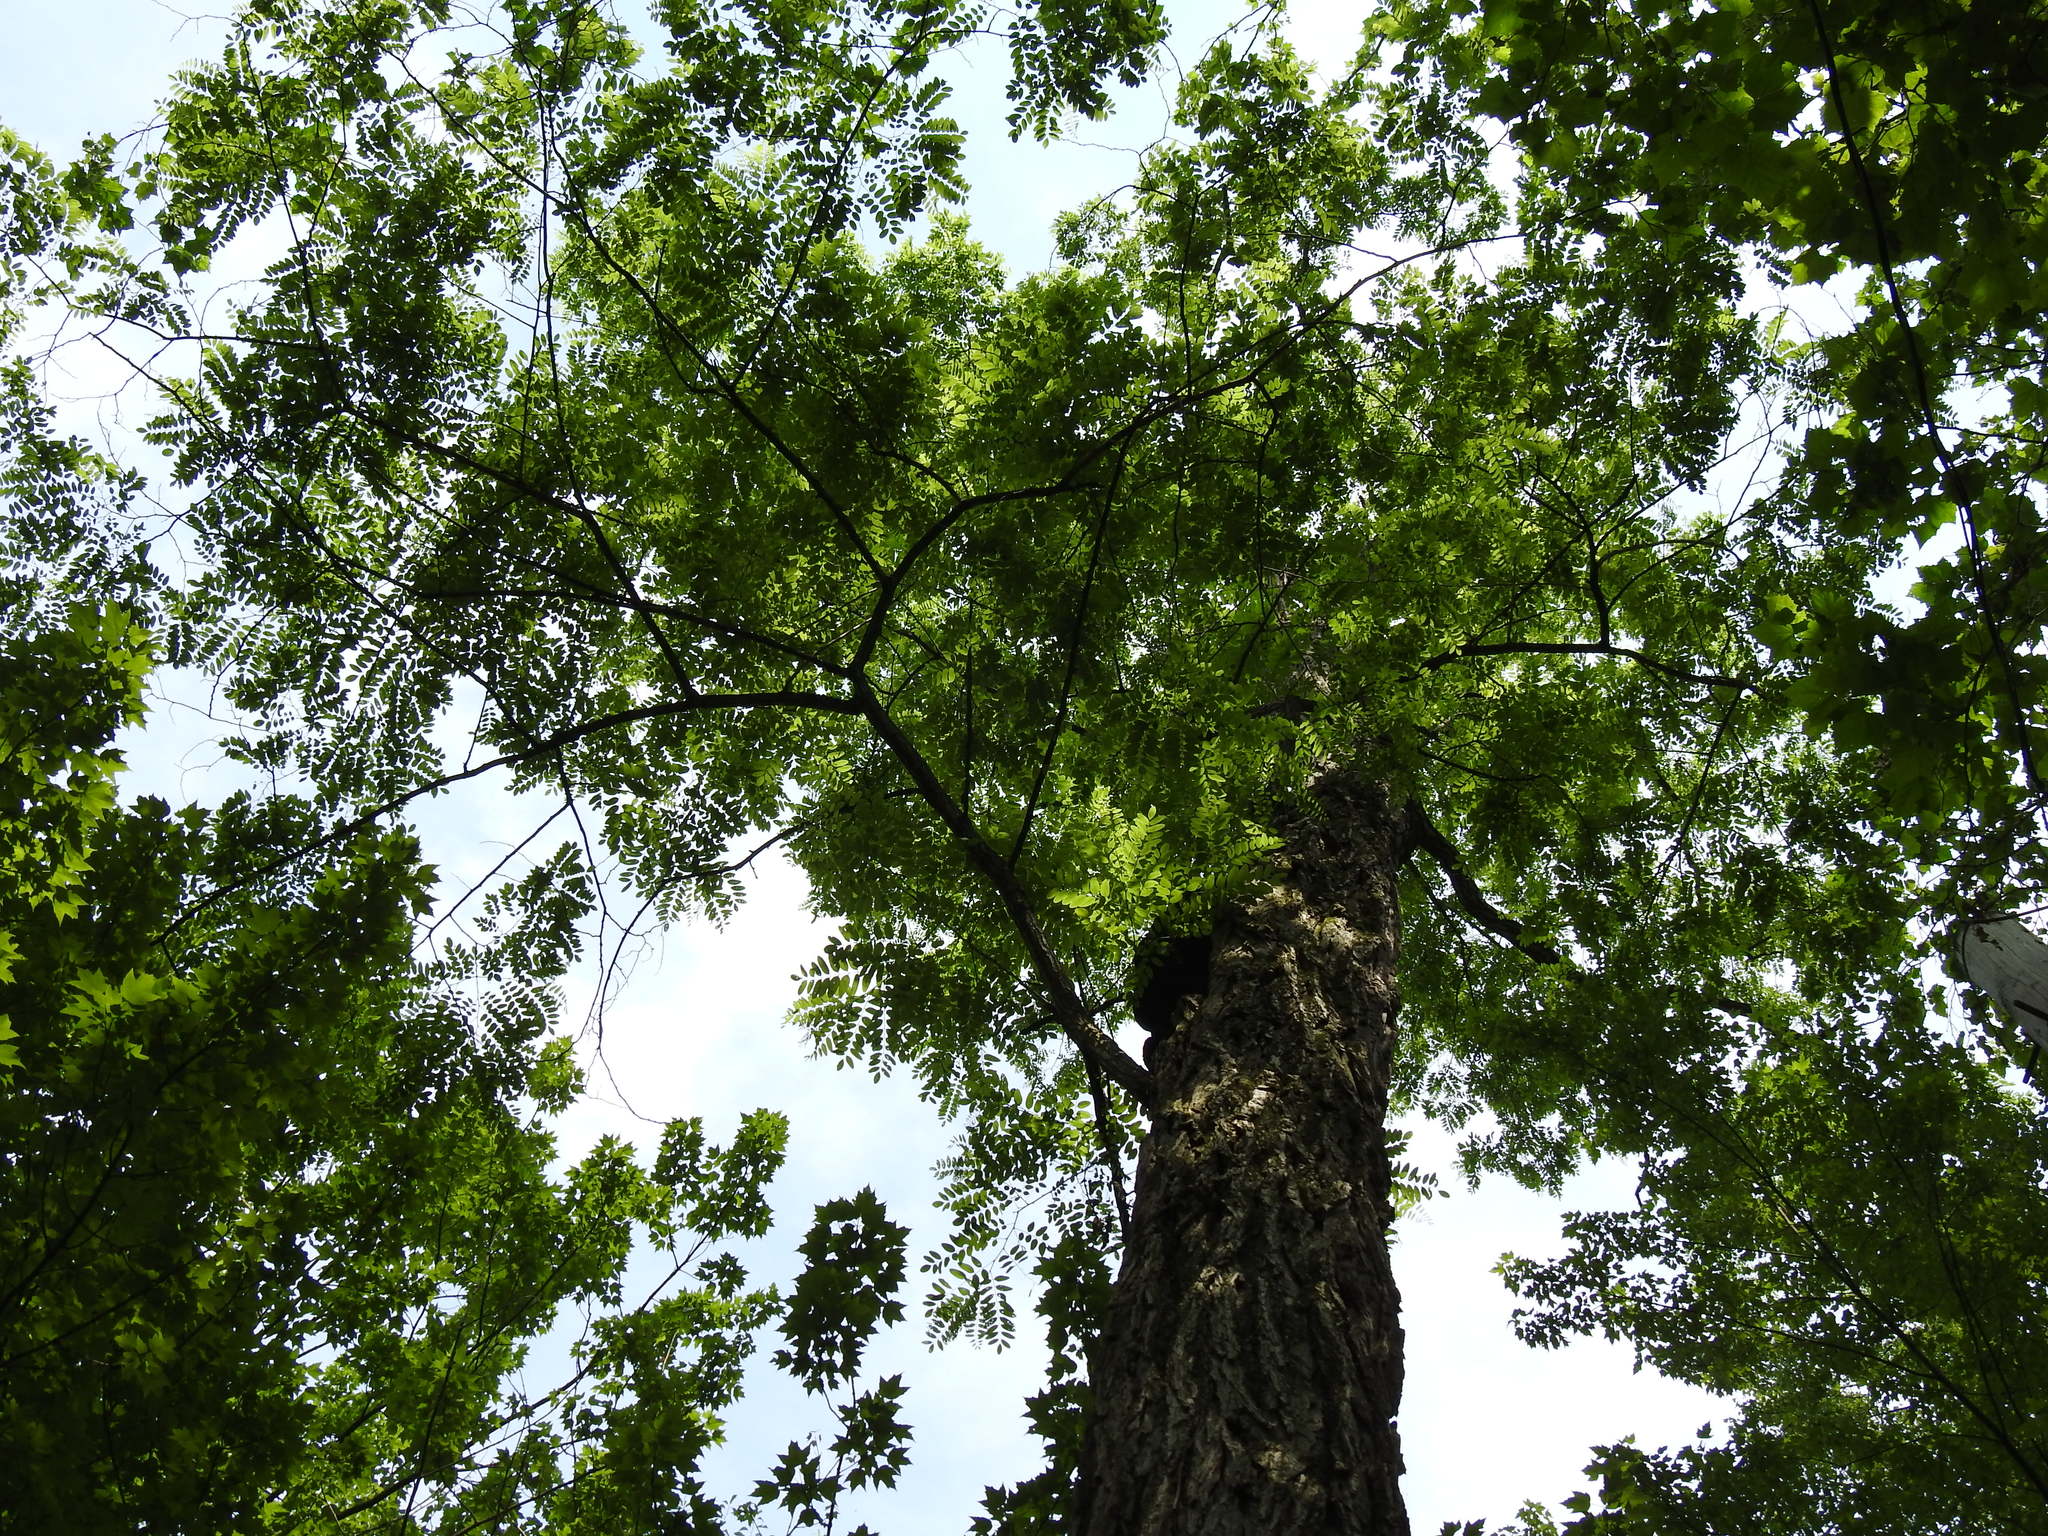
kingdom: Plantae
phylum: Tracheophyta
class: Magnoliopsida
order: Fabales
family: Fabaceae
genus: Robinia
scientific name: Robinia pseudoacacia
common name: Black locust
